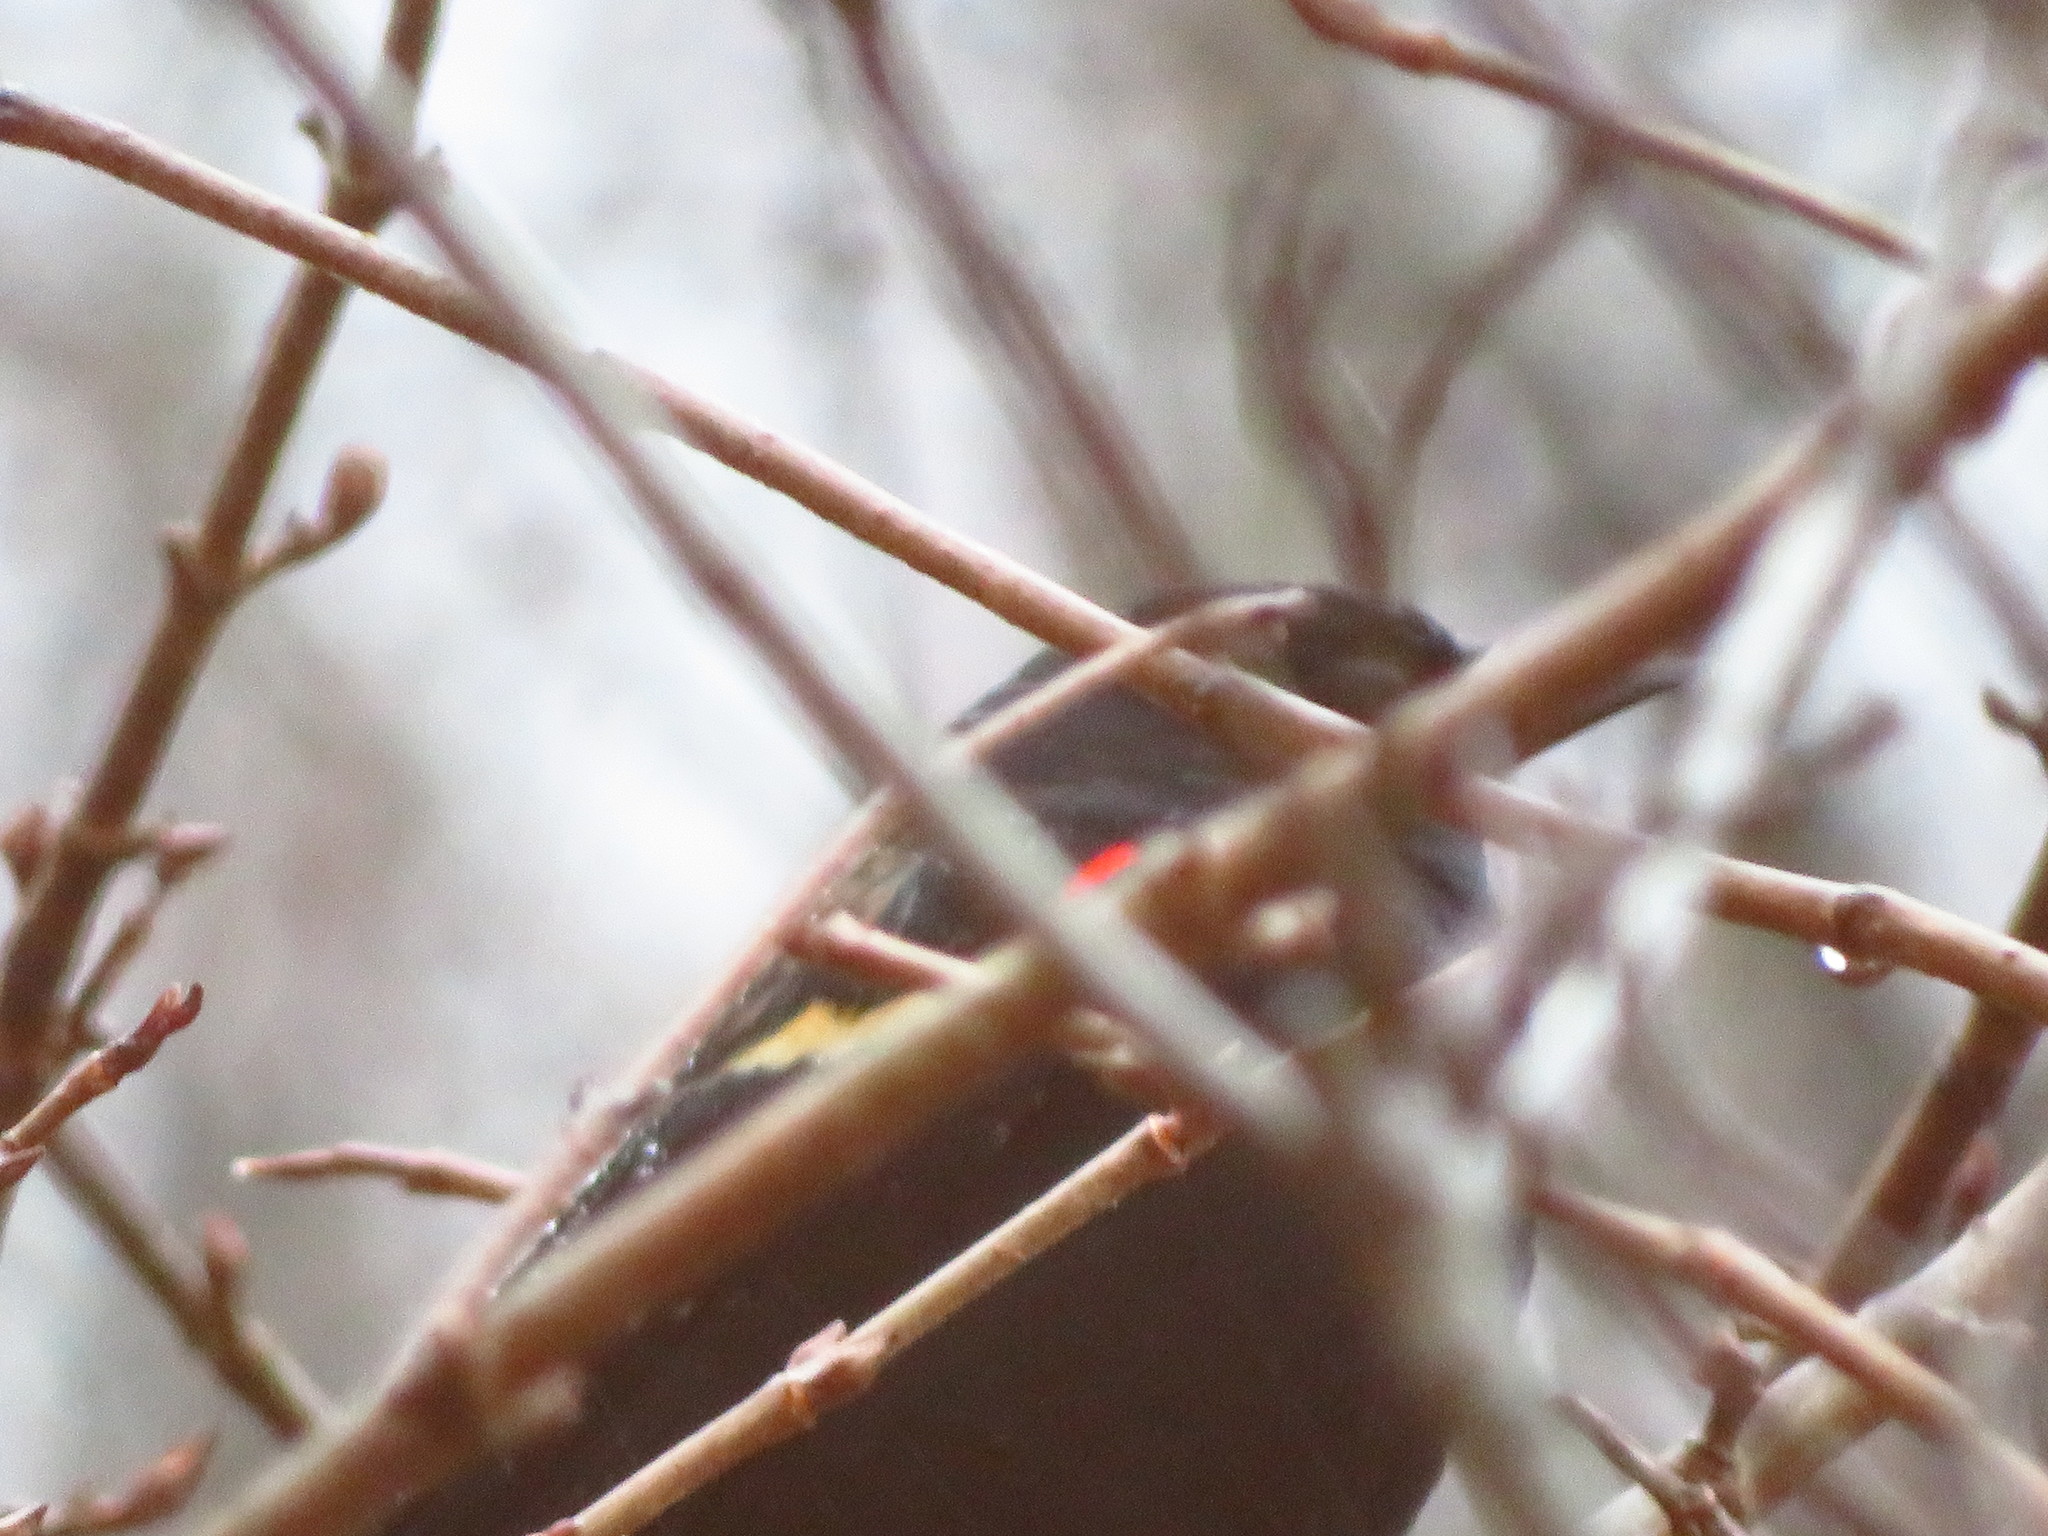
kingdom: Animalia
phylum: Chordata
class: Aves
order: Passeriformes
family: Icteridae
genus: Agelaius
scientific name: Agelaius phoeniceus
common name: Red-winged blackbird
